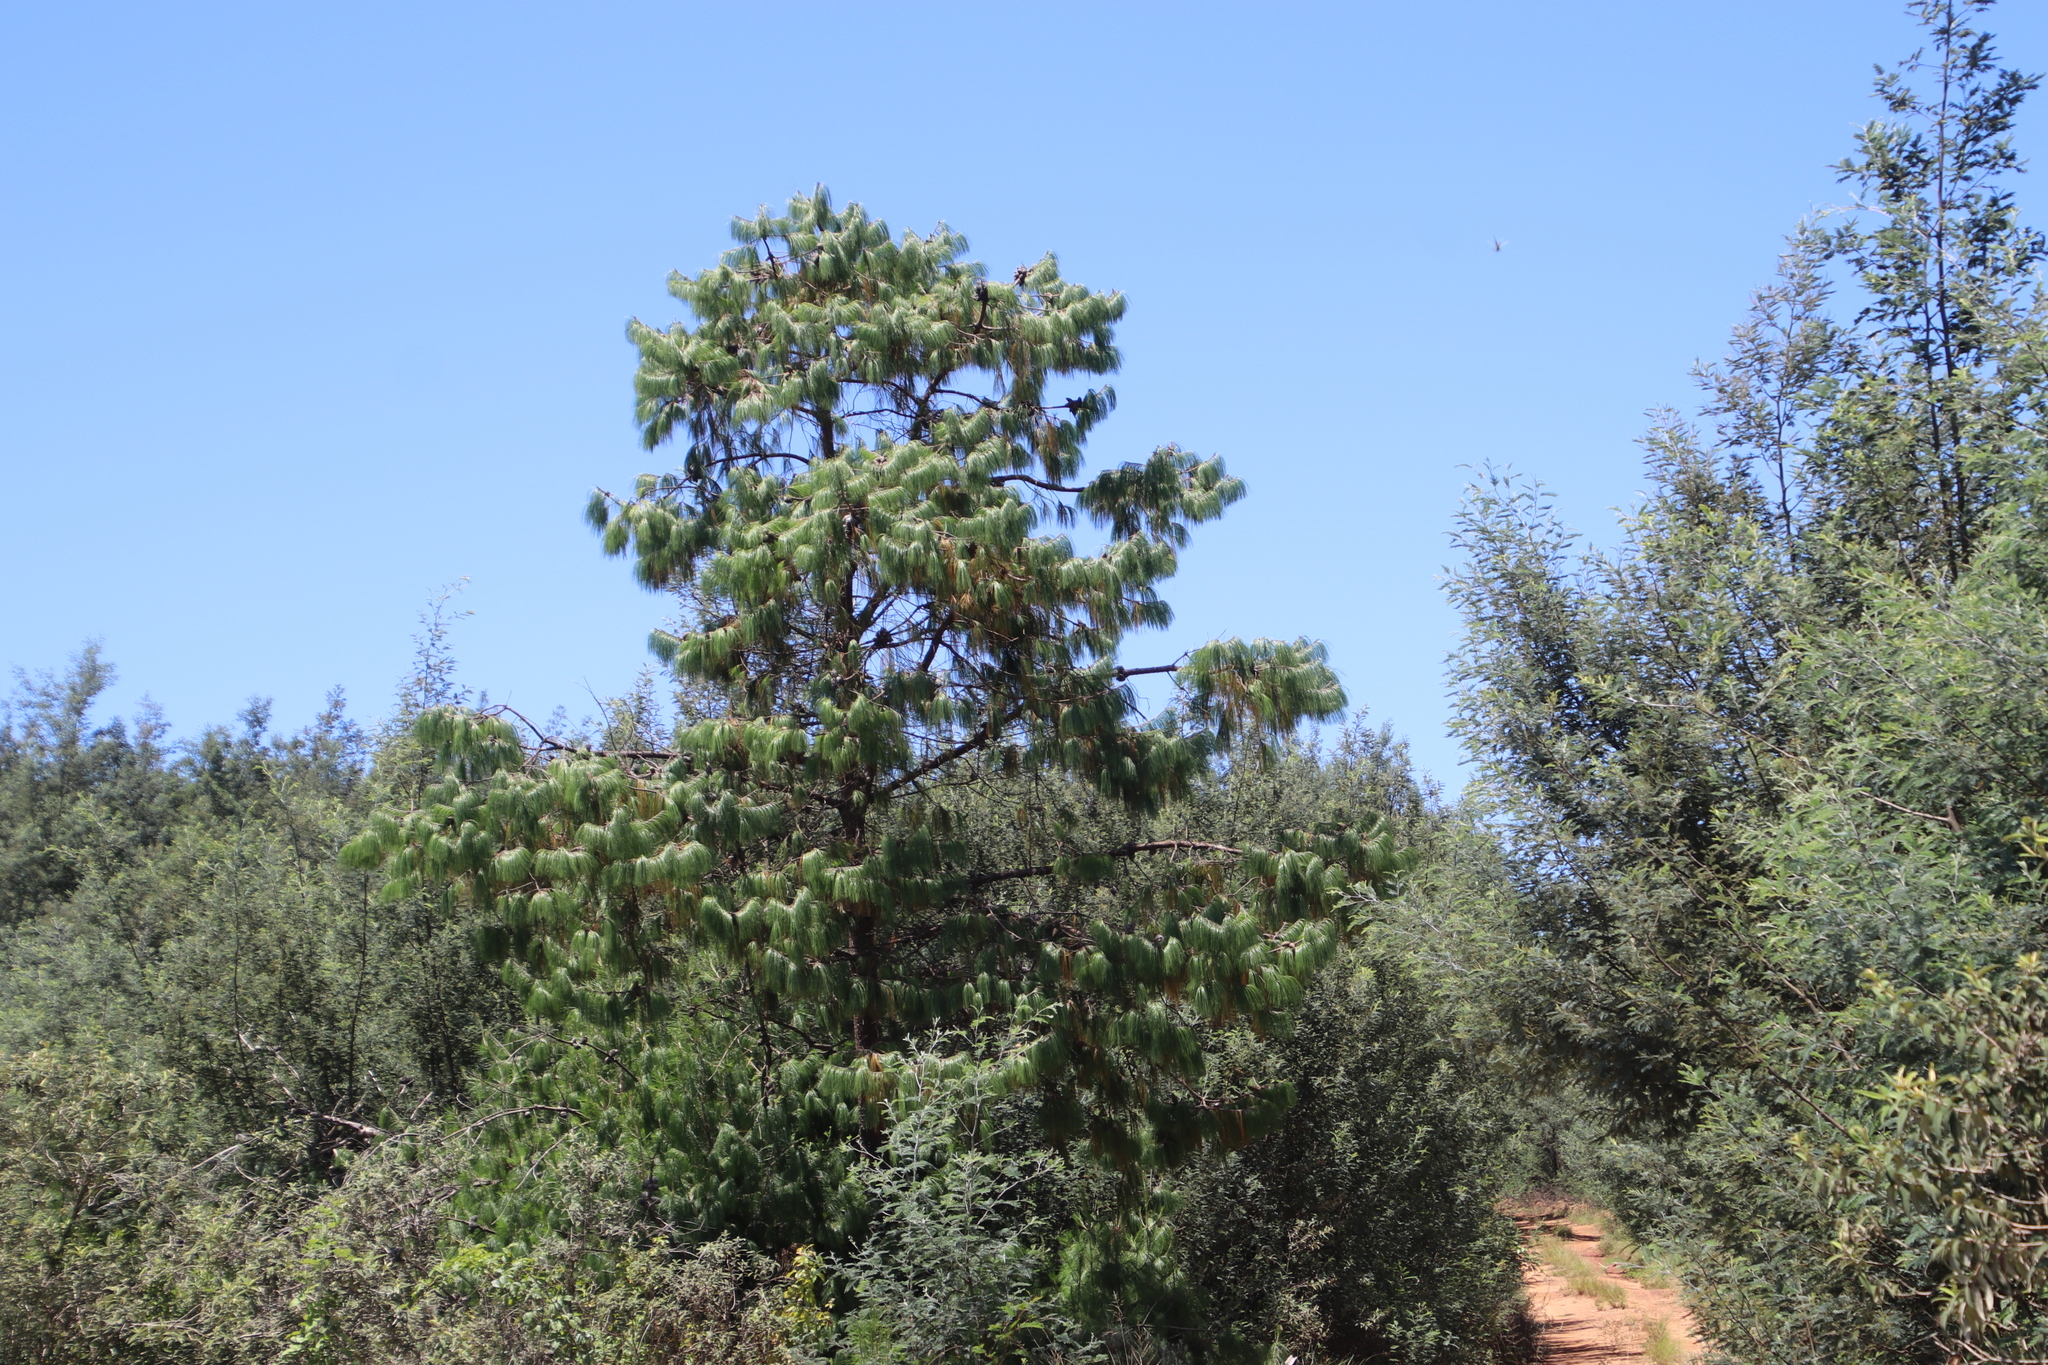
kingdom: Plantae
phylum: Tracheophyta
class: Pinopsida
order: Pinales
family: Pinaceae
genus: Pinus
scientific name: Pinus patula
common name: Mexican weeping pine
